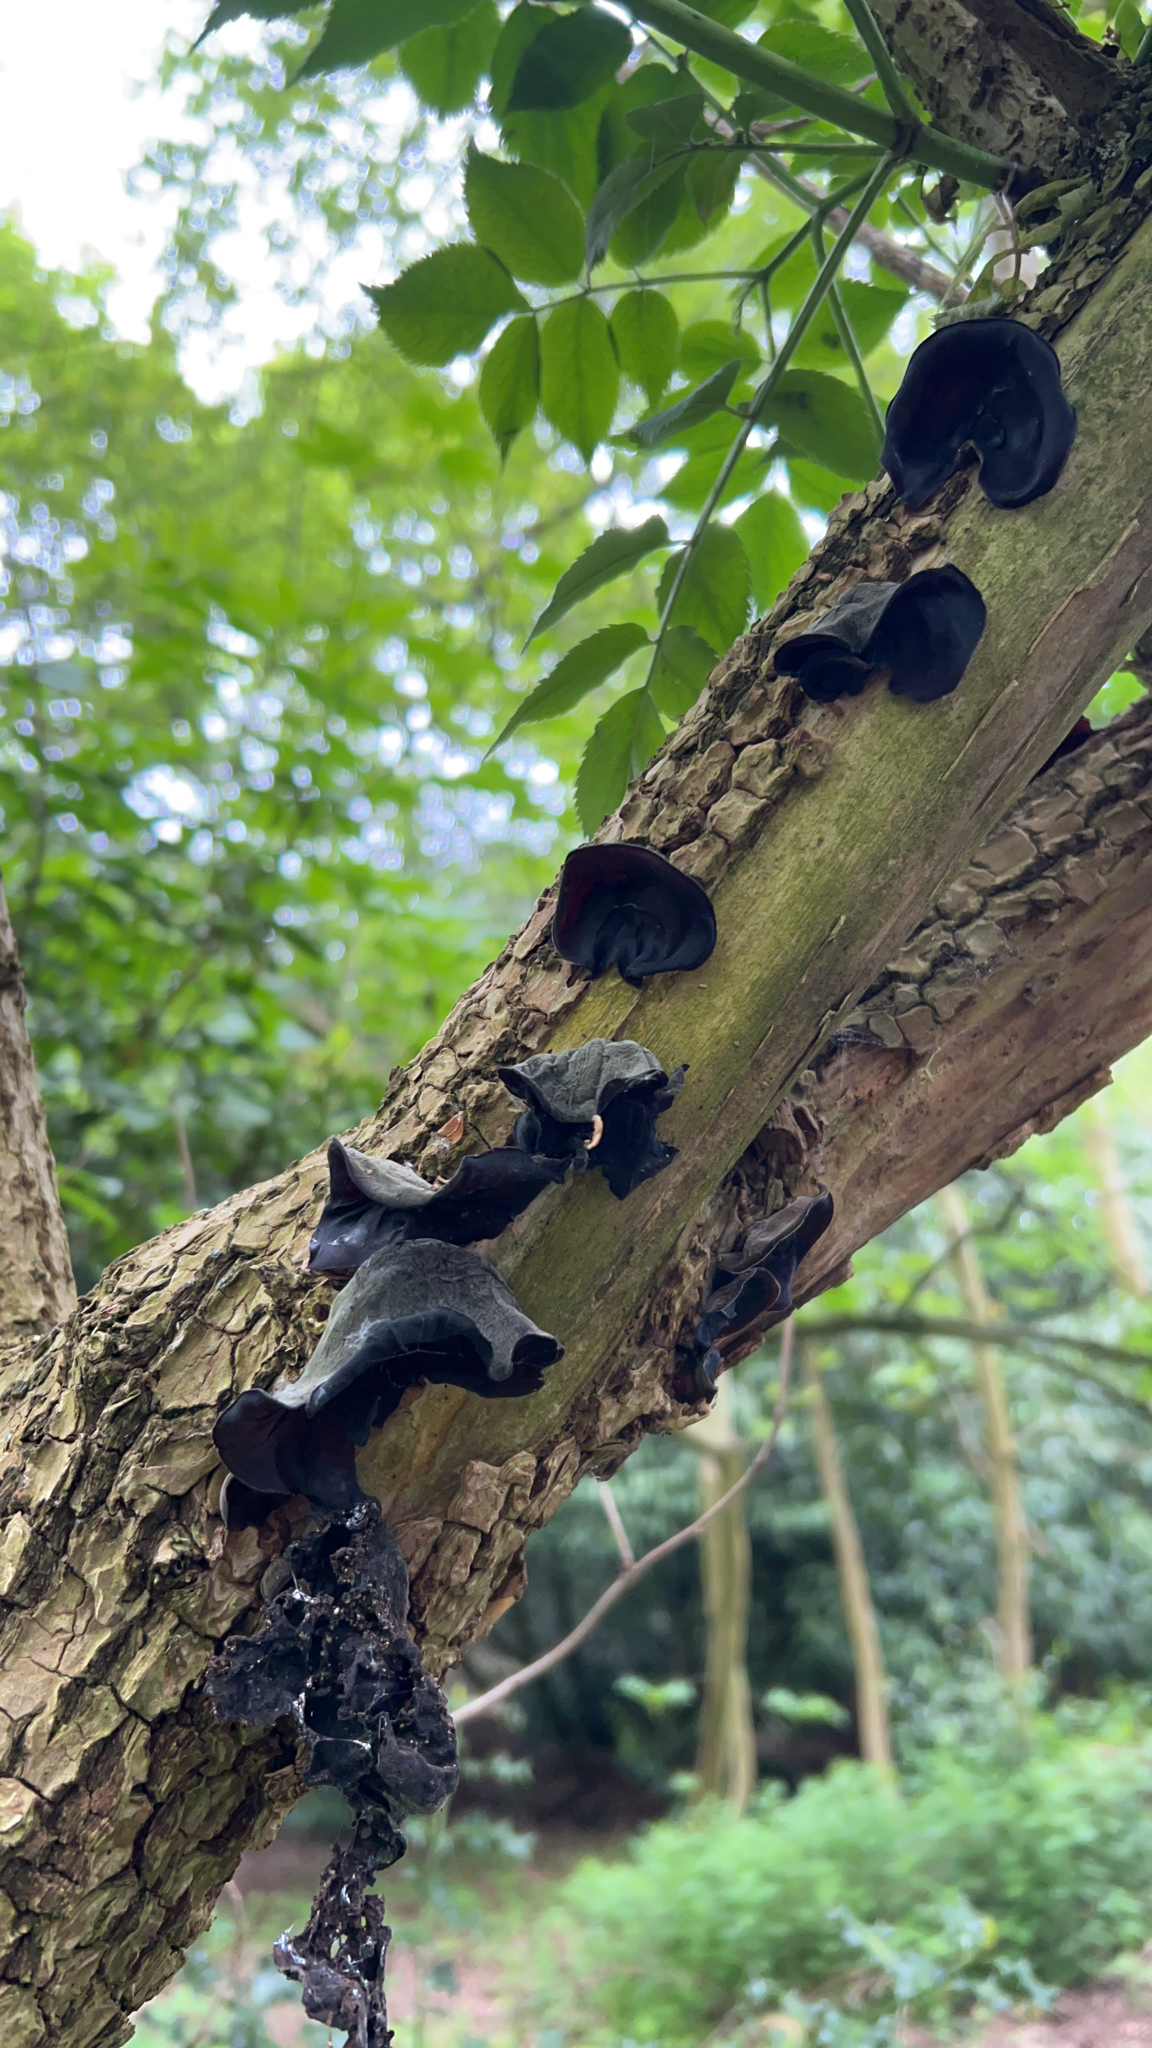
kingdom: Fungi
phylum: Basidiomycota
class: Agaricomycetes
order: Auriculariales
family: Auriculariaceae
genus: Auricularia
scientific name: Auricularia auricula-judae
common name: Jelly ear
